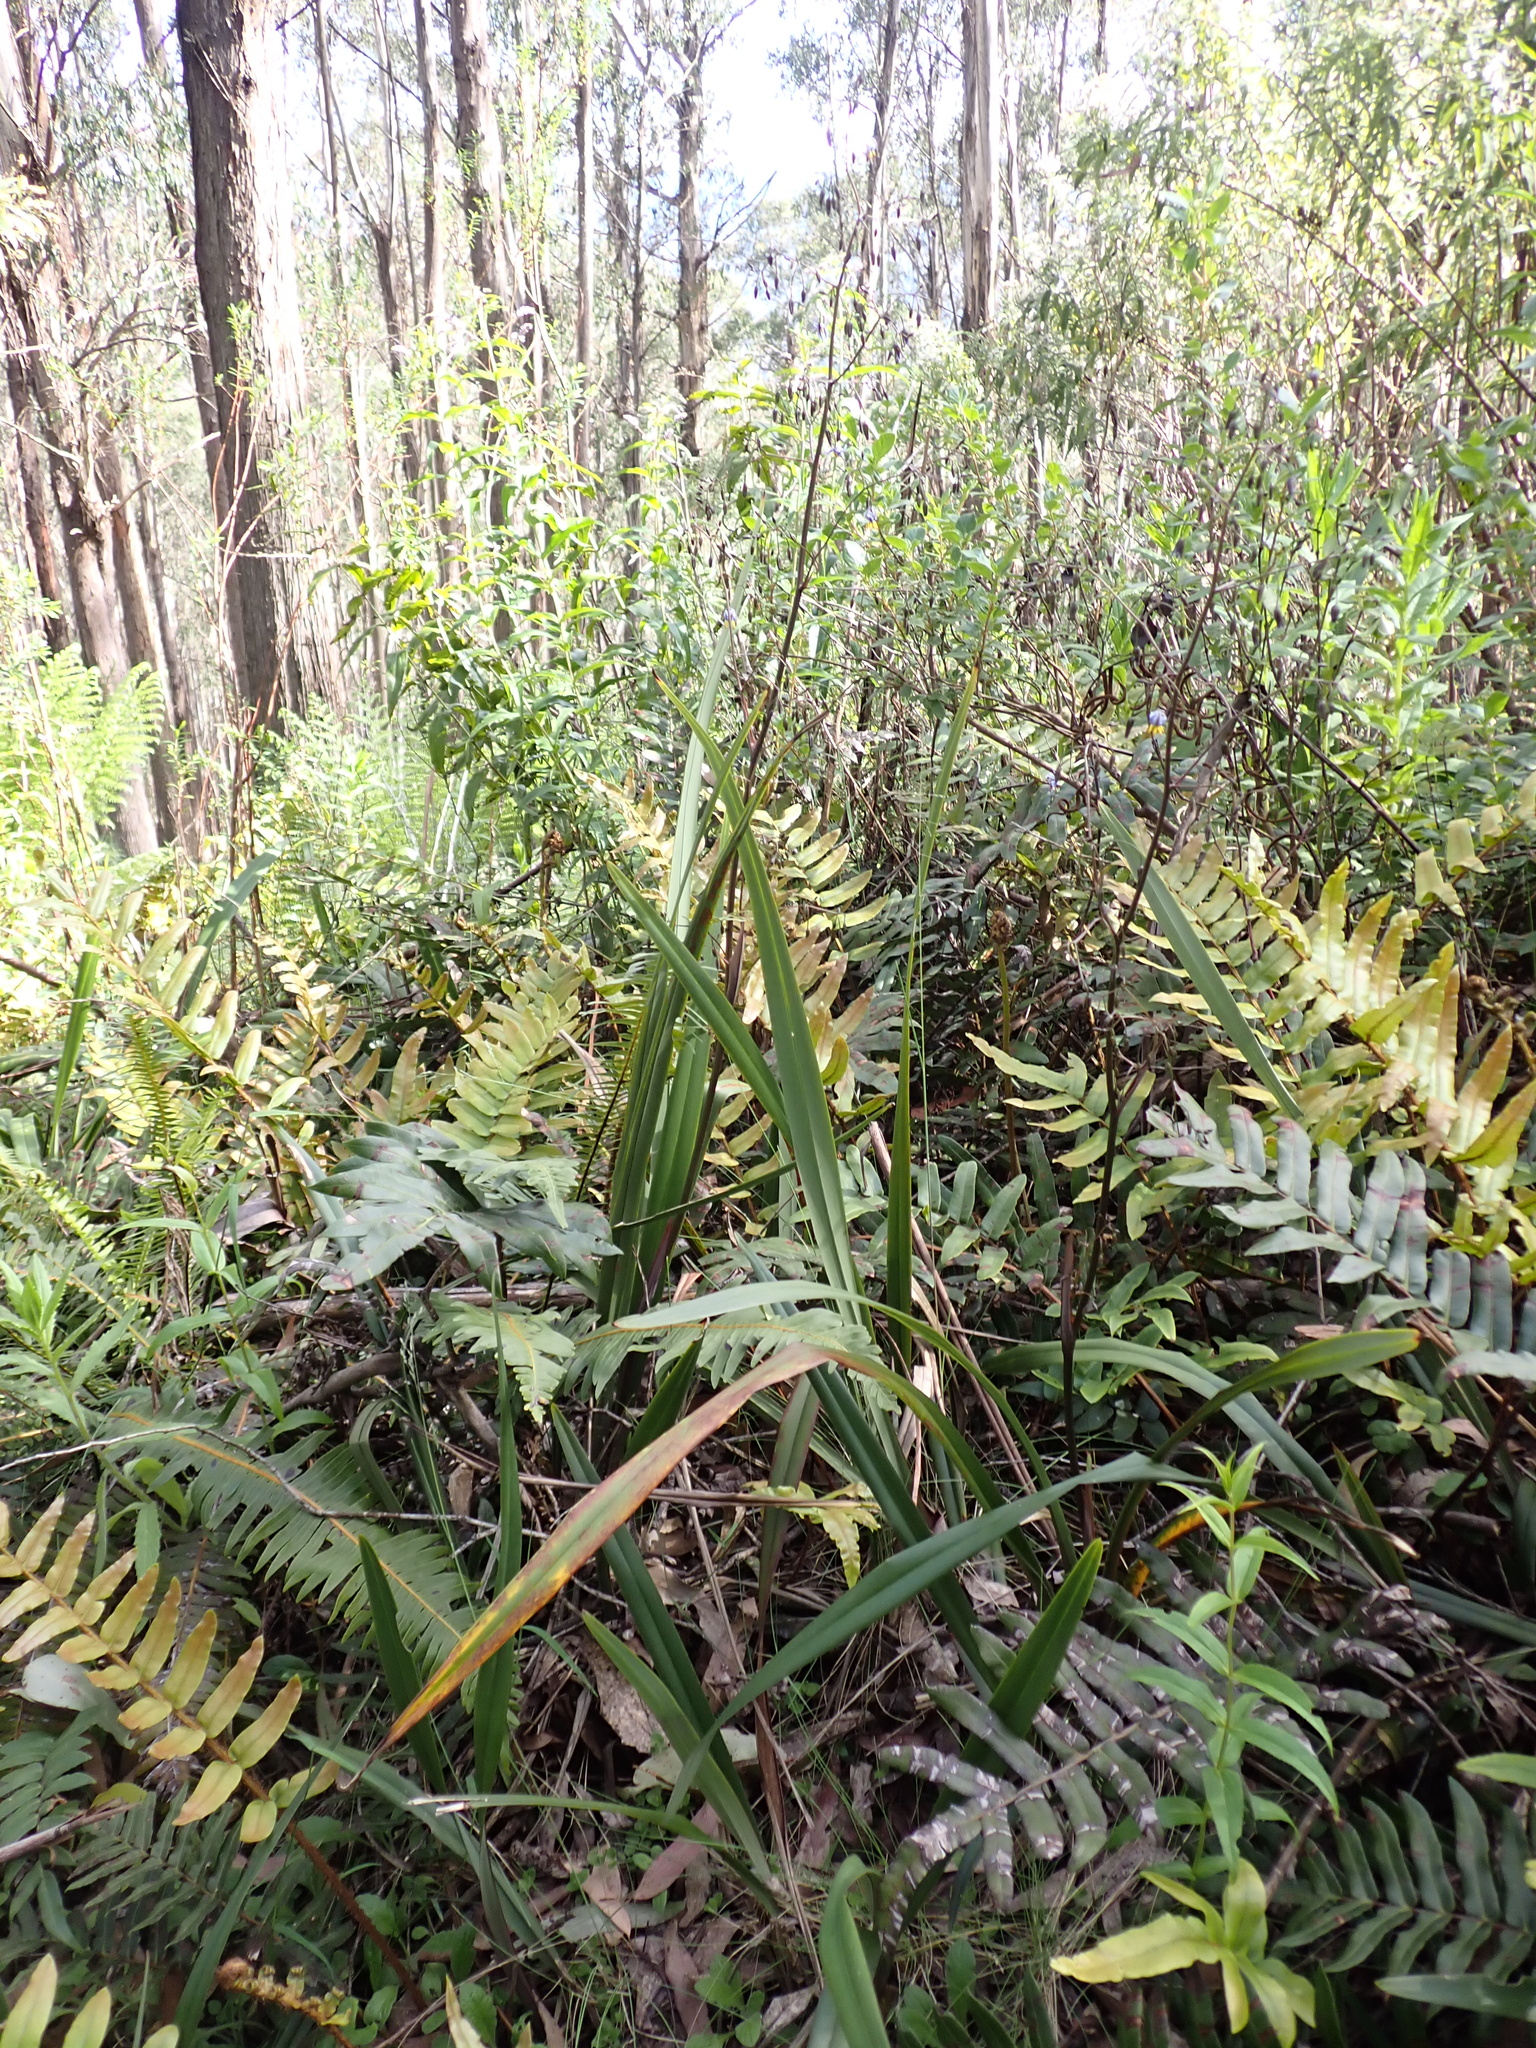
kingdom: Plantae
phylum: Tracheophyta
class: Liliopsida
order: Asparagales
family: Asphodelaceae
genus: Dianella
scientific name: Dianella tasmanica
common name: Tasman flax-lily
